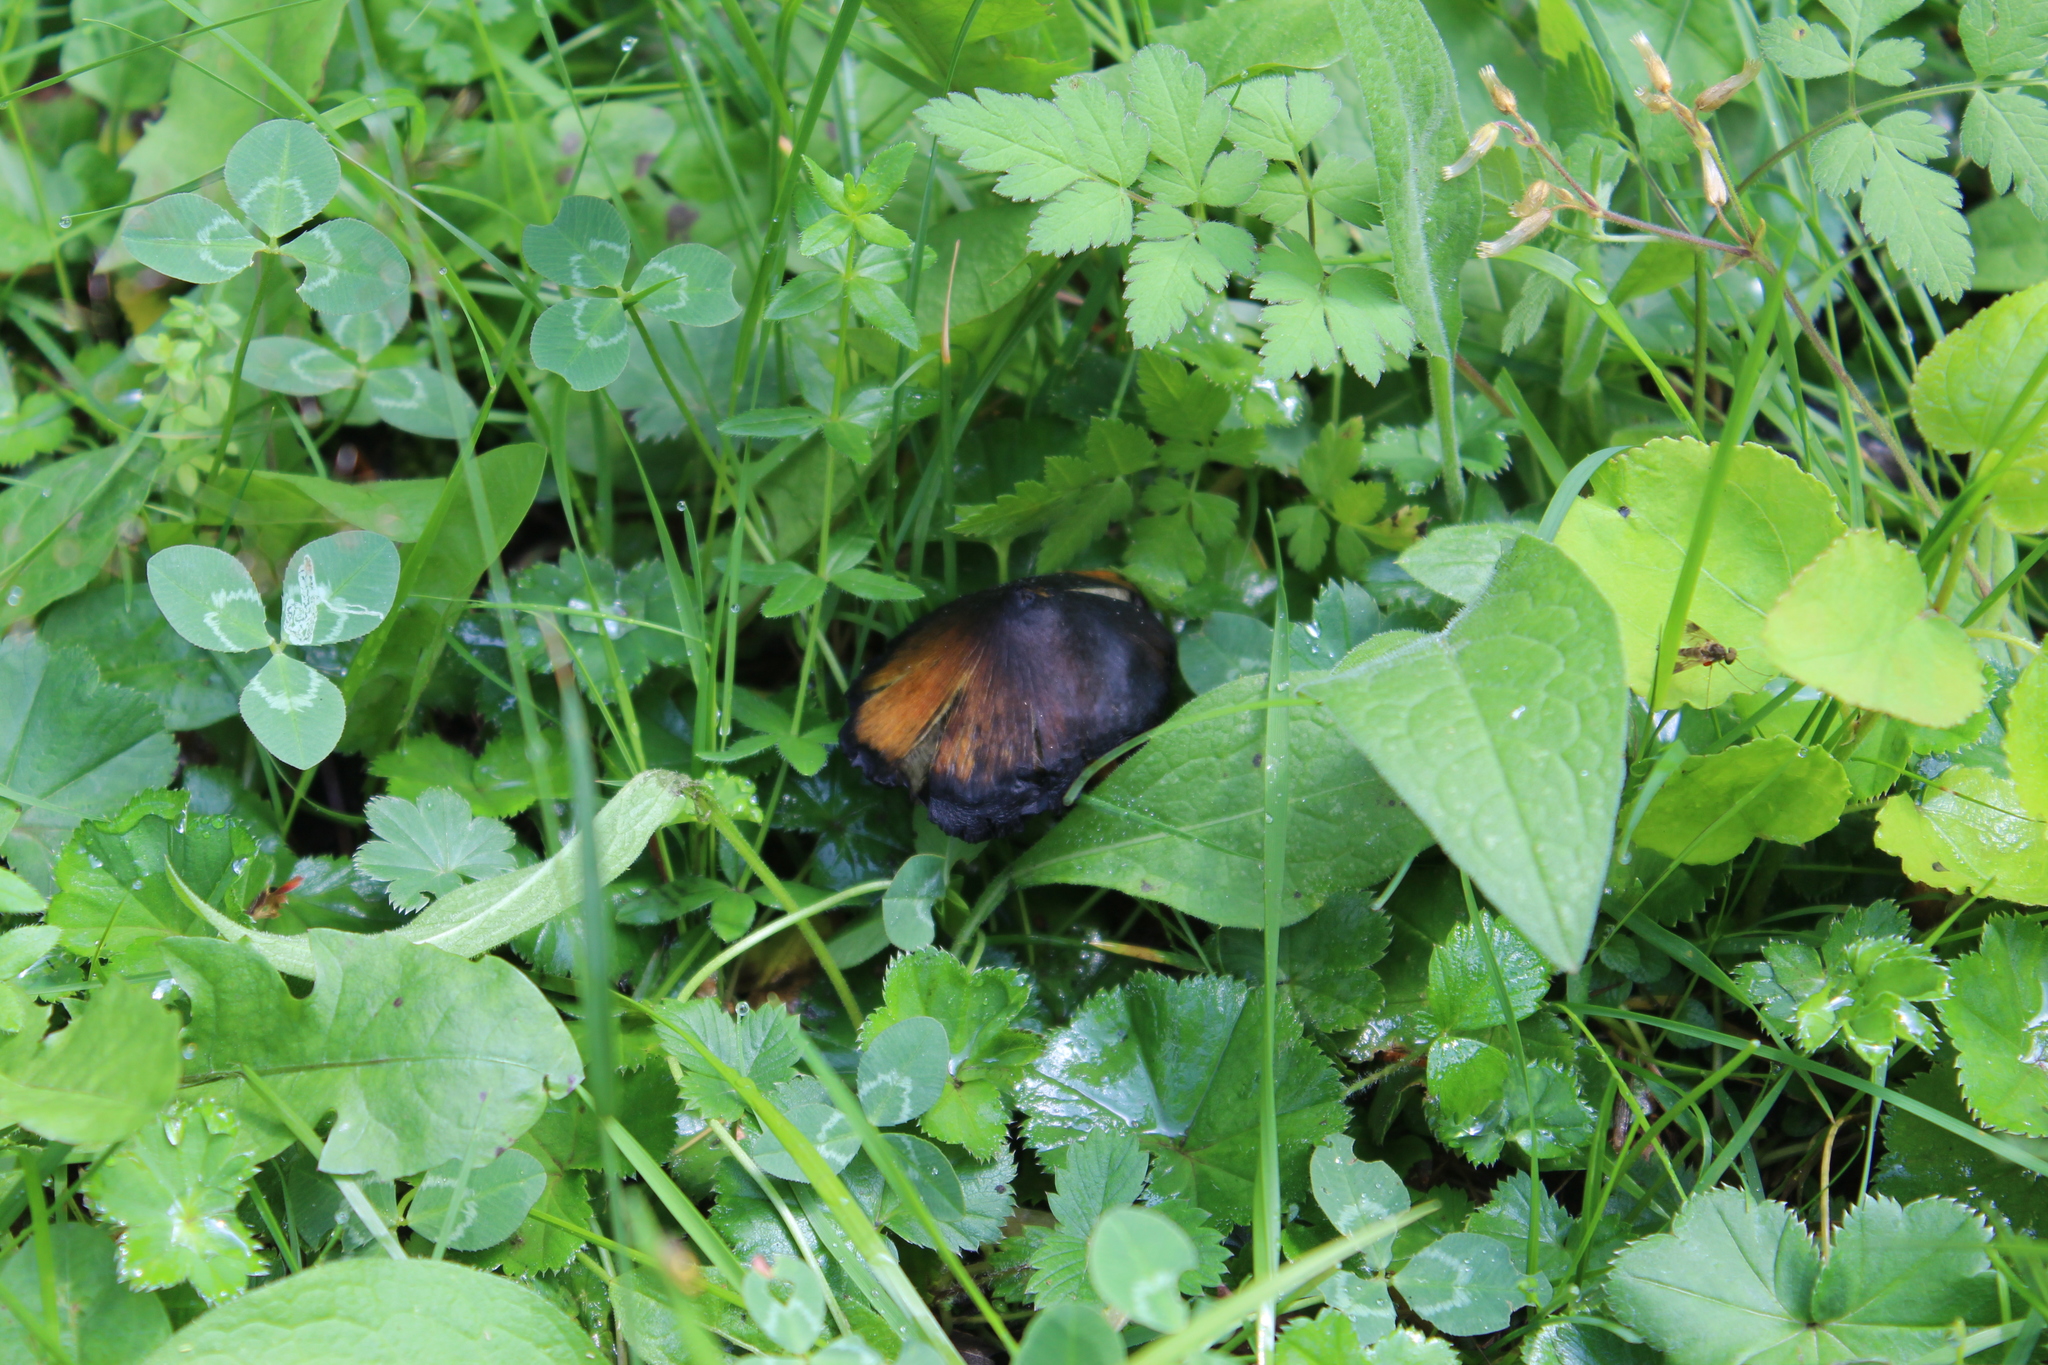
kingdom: Fungi
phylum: Basidiomycota
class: Agaricomycetes
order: Agaricales
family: Hygrophoraceae
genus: Hygrocybe
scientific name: Hygrocybe conica
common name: Blackening wax-cap
